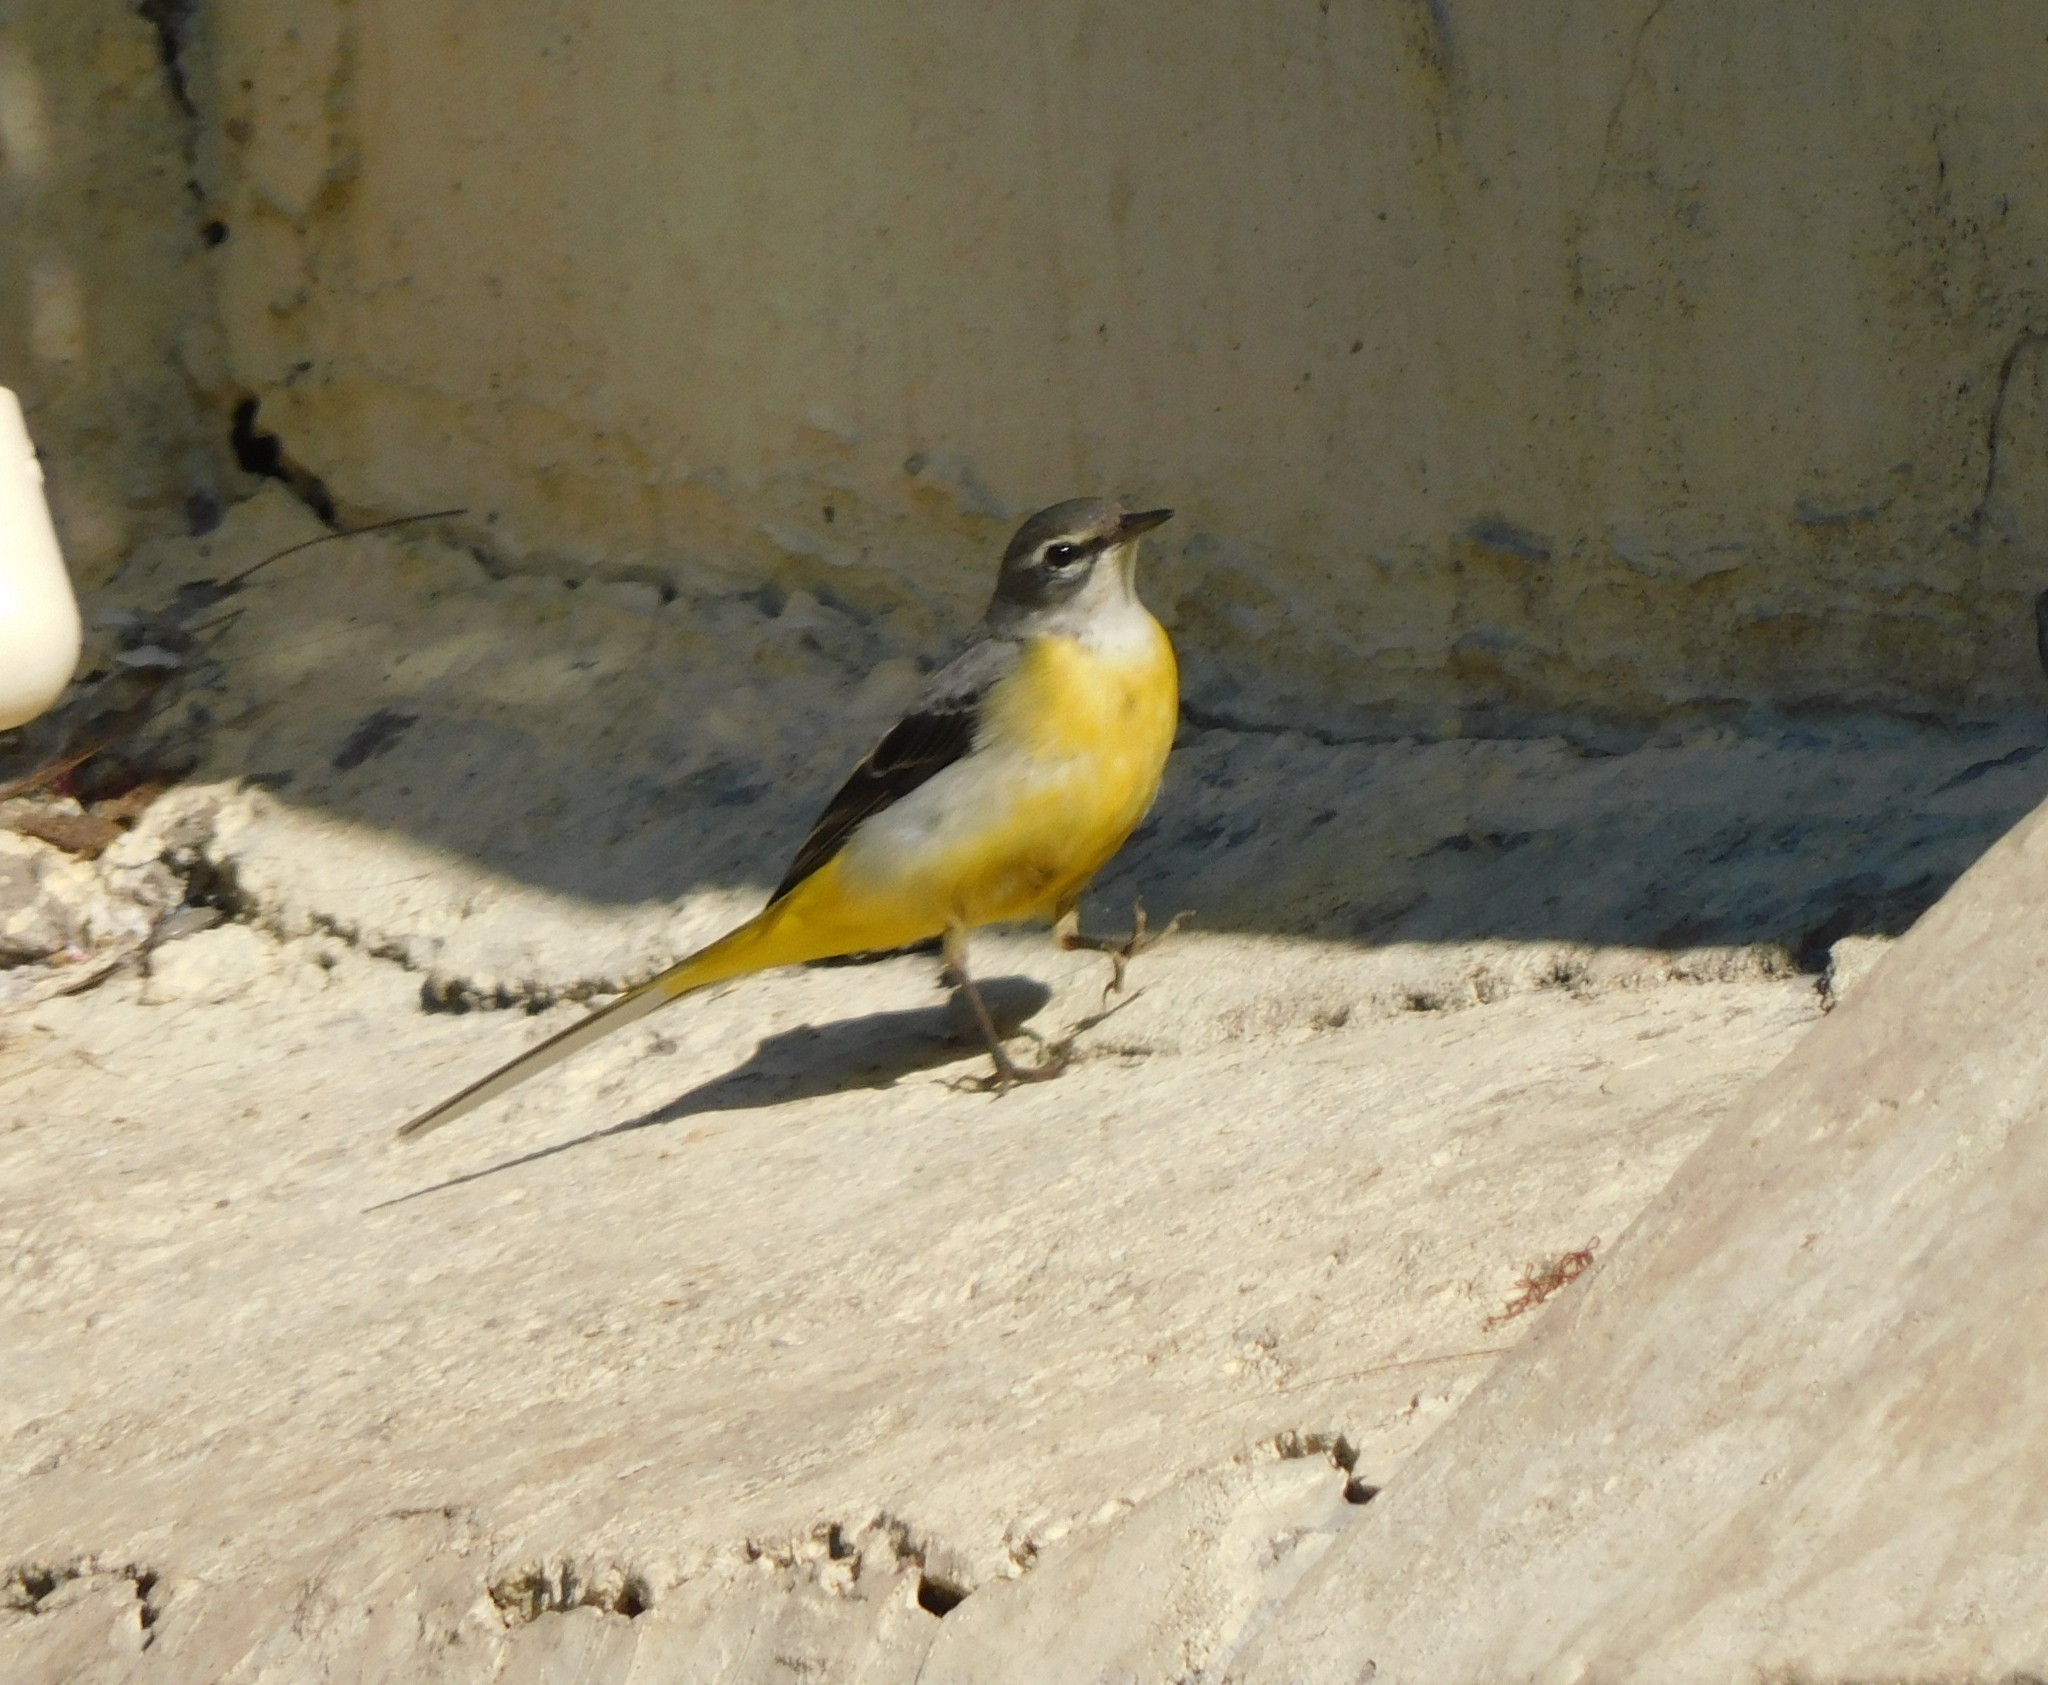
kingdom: Animalia
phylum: Chordata
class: Aves
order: Passeriformes
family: Motacillidae
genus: Motacilla
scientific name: Motacilla cinerea
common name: Grey wagtail
